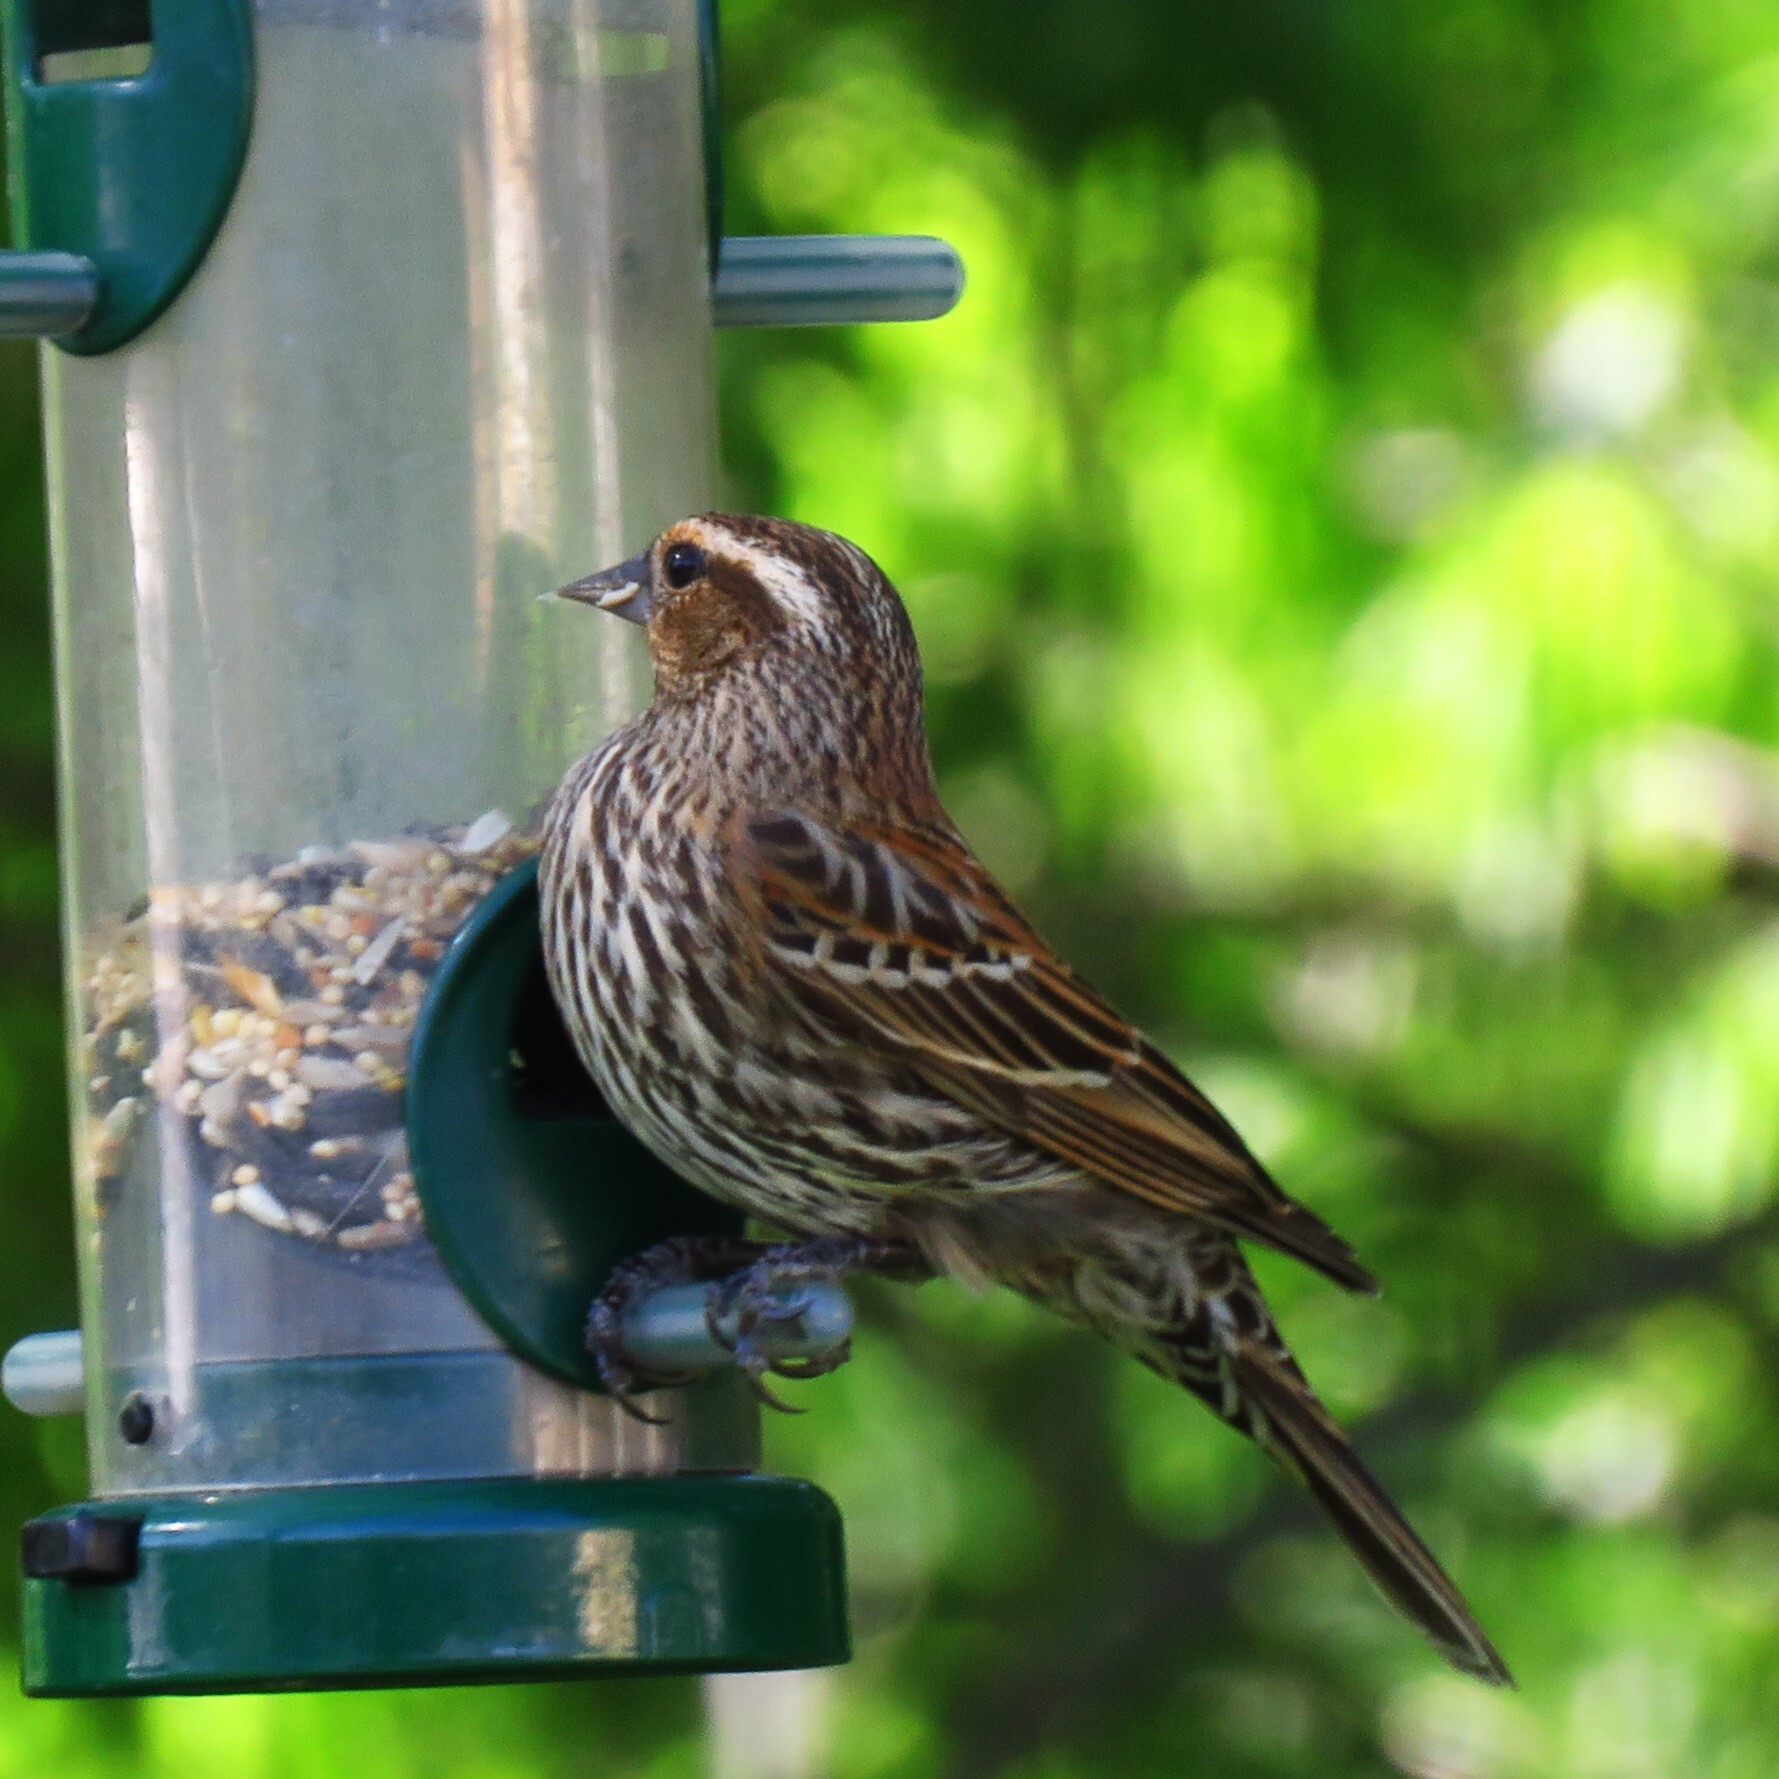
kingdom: Animalia
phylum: Chordata
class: Aves
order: Passeriformes
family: Icteridae
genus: Agelaius
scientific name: Agelaius phoeniceus
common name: Red-winged blackbird
